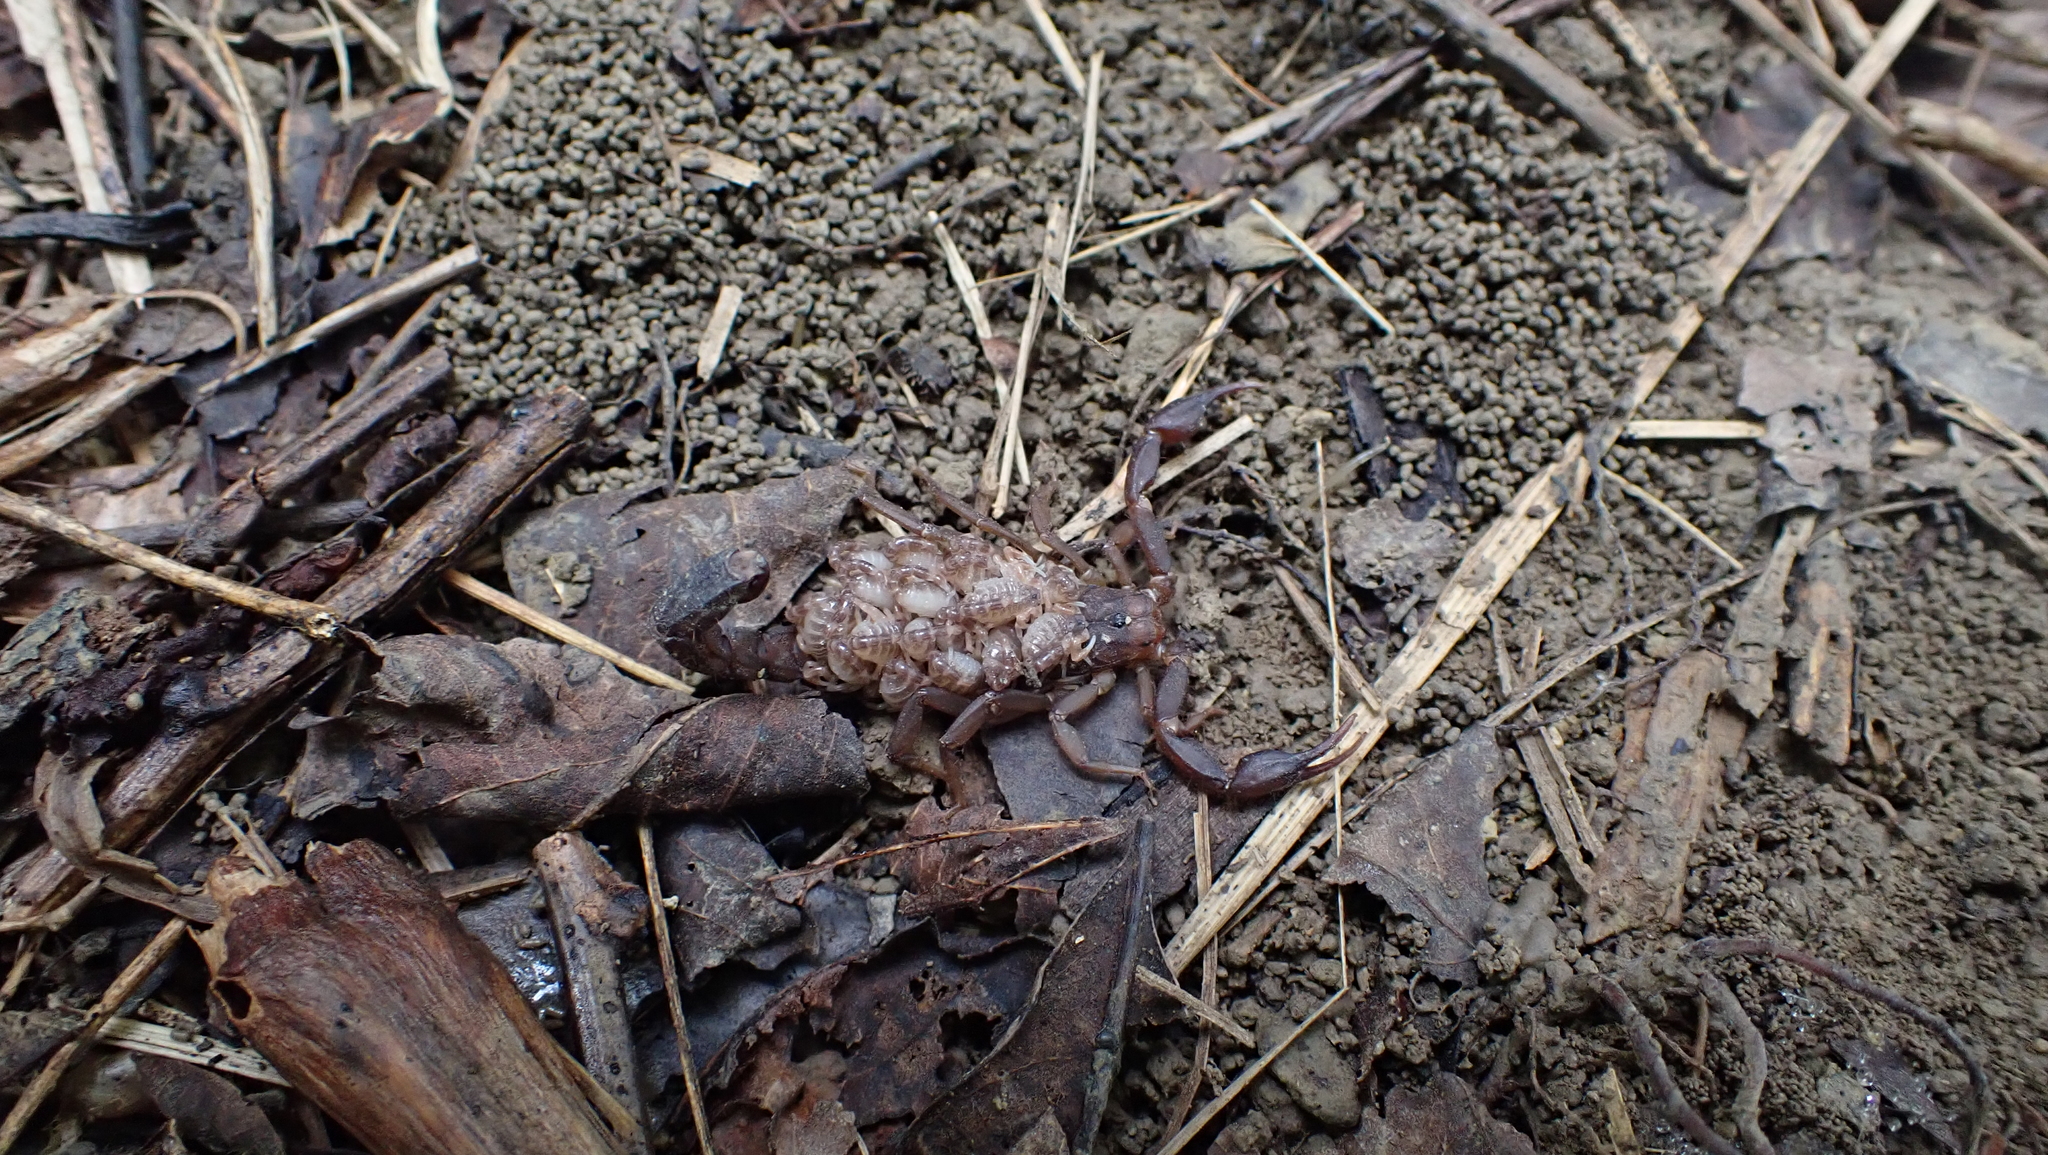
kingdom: Animalia
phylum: Arthropoda
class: Arachnida
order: Scorpiones
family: Vaejovidae
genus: Vaejovis
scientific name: Vaejovis carolinianus
